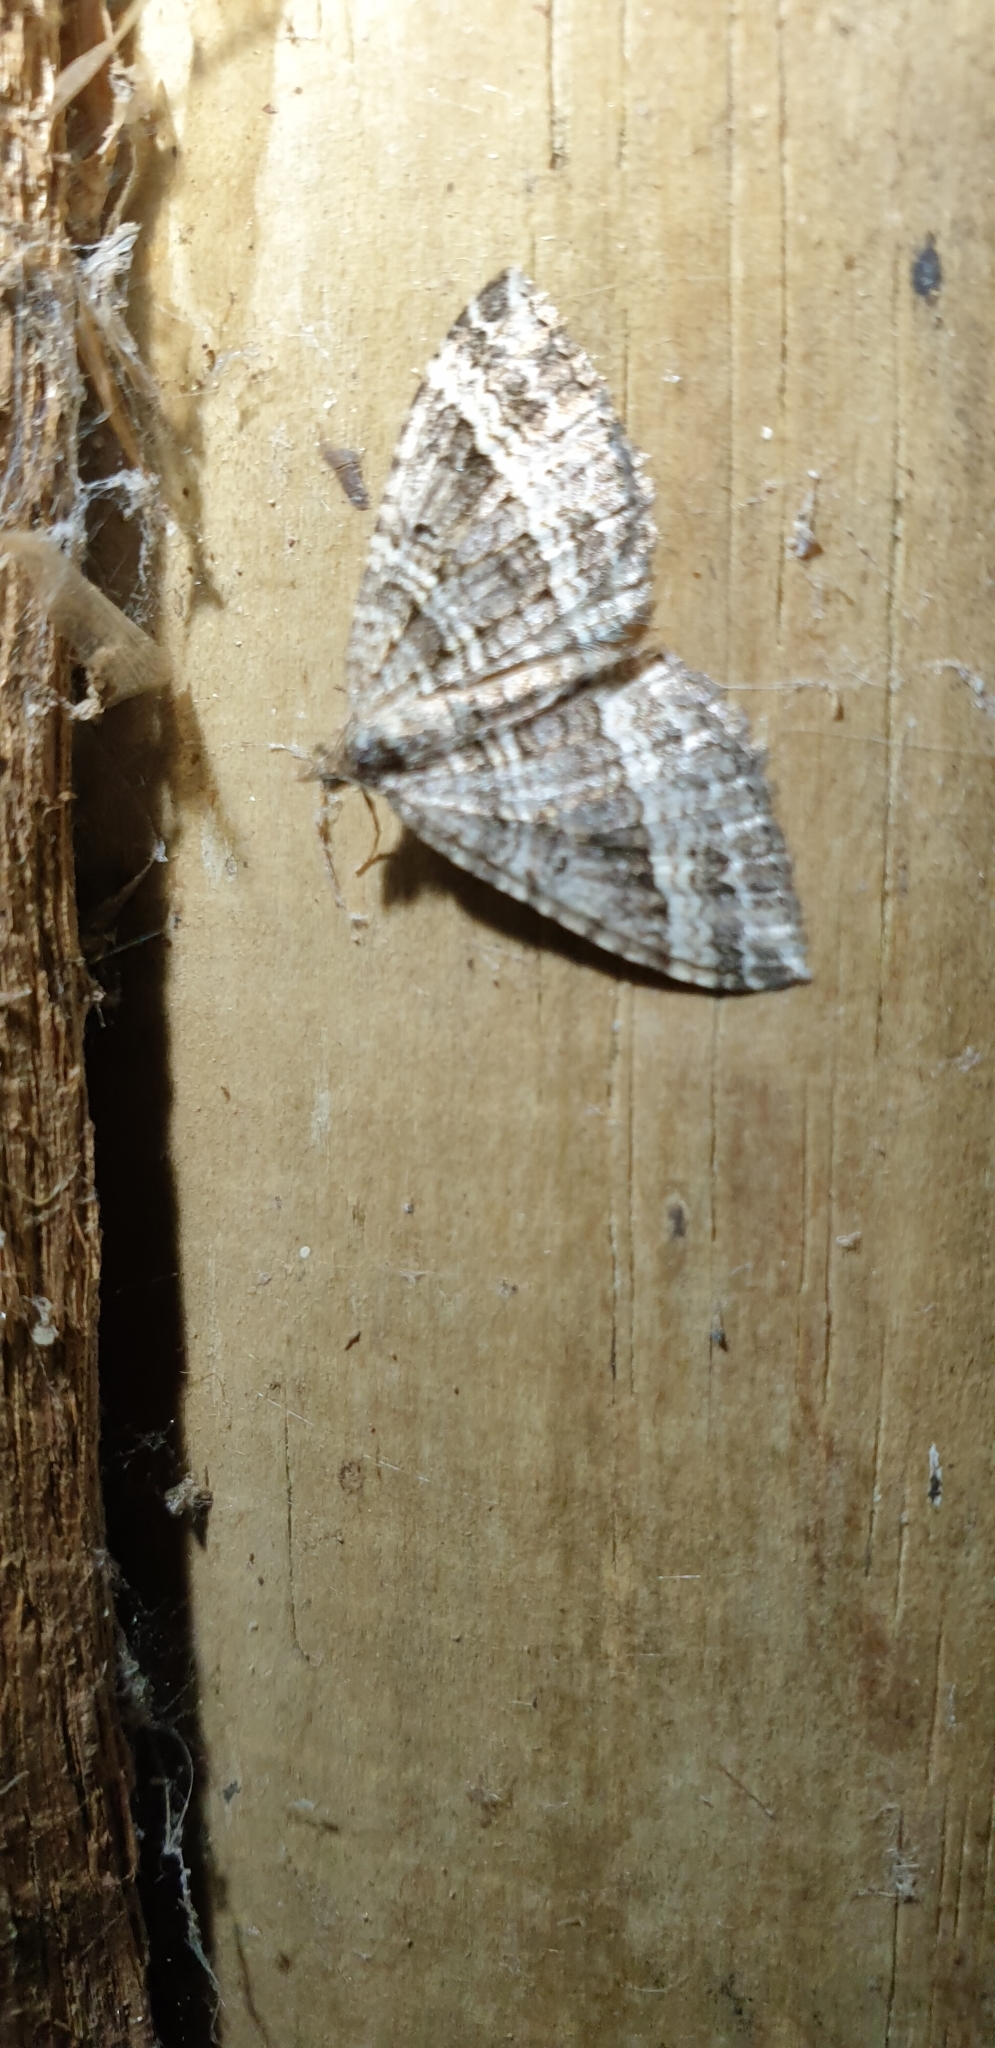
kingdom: Animalia
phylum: Arthropoda
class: Insecta
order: Lepidoptera
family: Geometridae
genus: Chrysolarentia
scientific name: Chrysolarentia subrectaria
